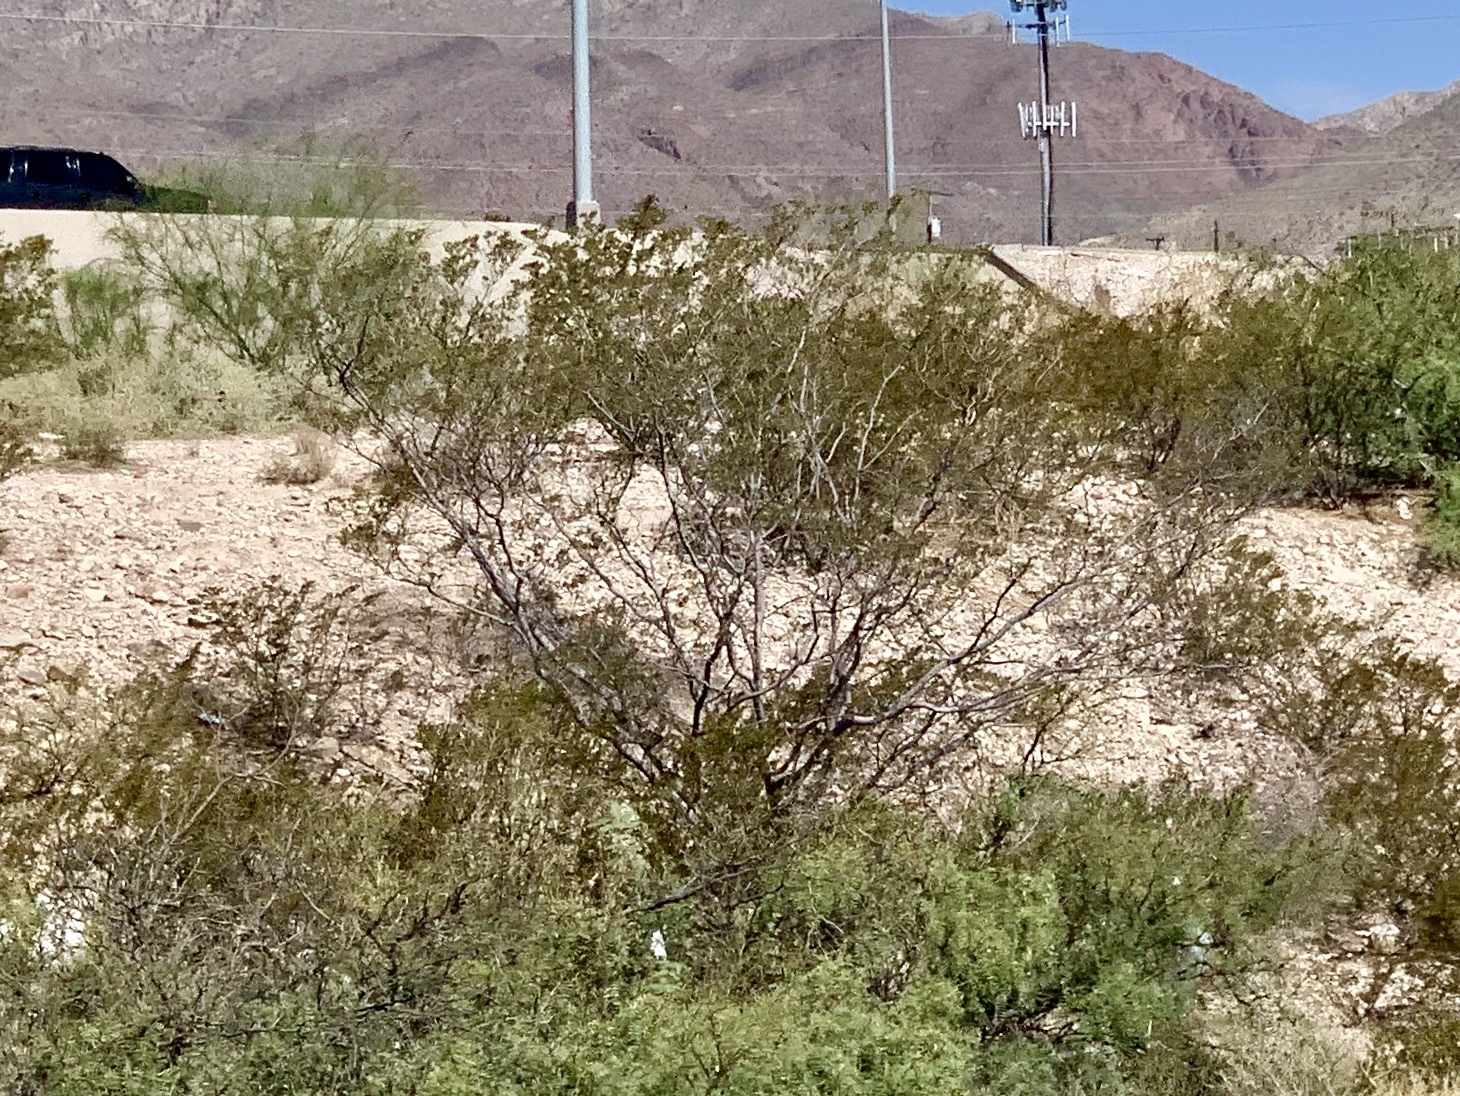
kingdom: Plantae
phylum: Tracheophyta
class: Magnoliopsida
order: Zygophyllales
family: Zygophyllaceae
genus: Larrea
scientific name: Larrea tridentata
